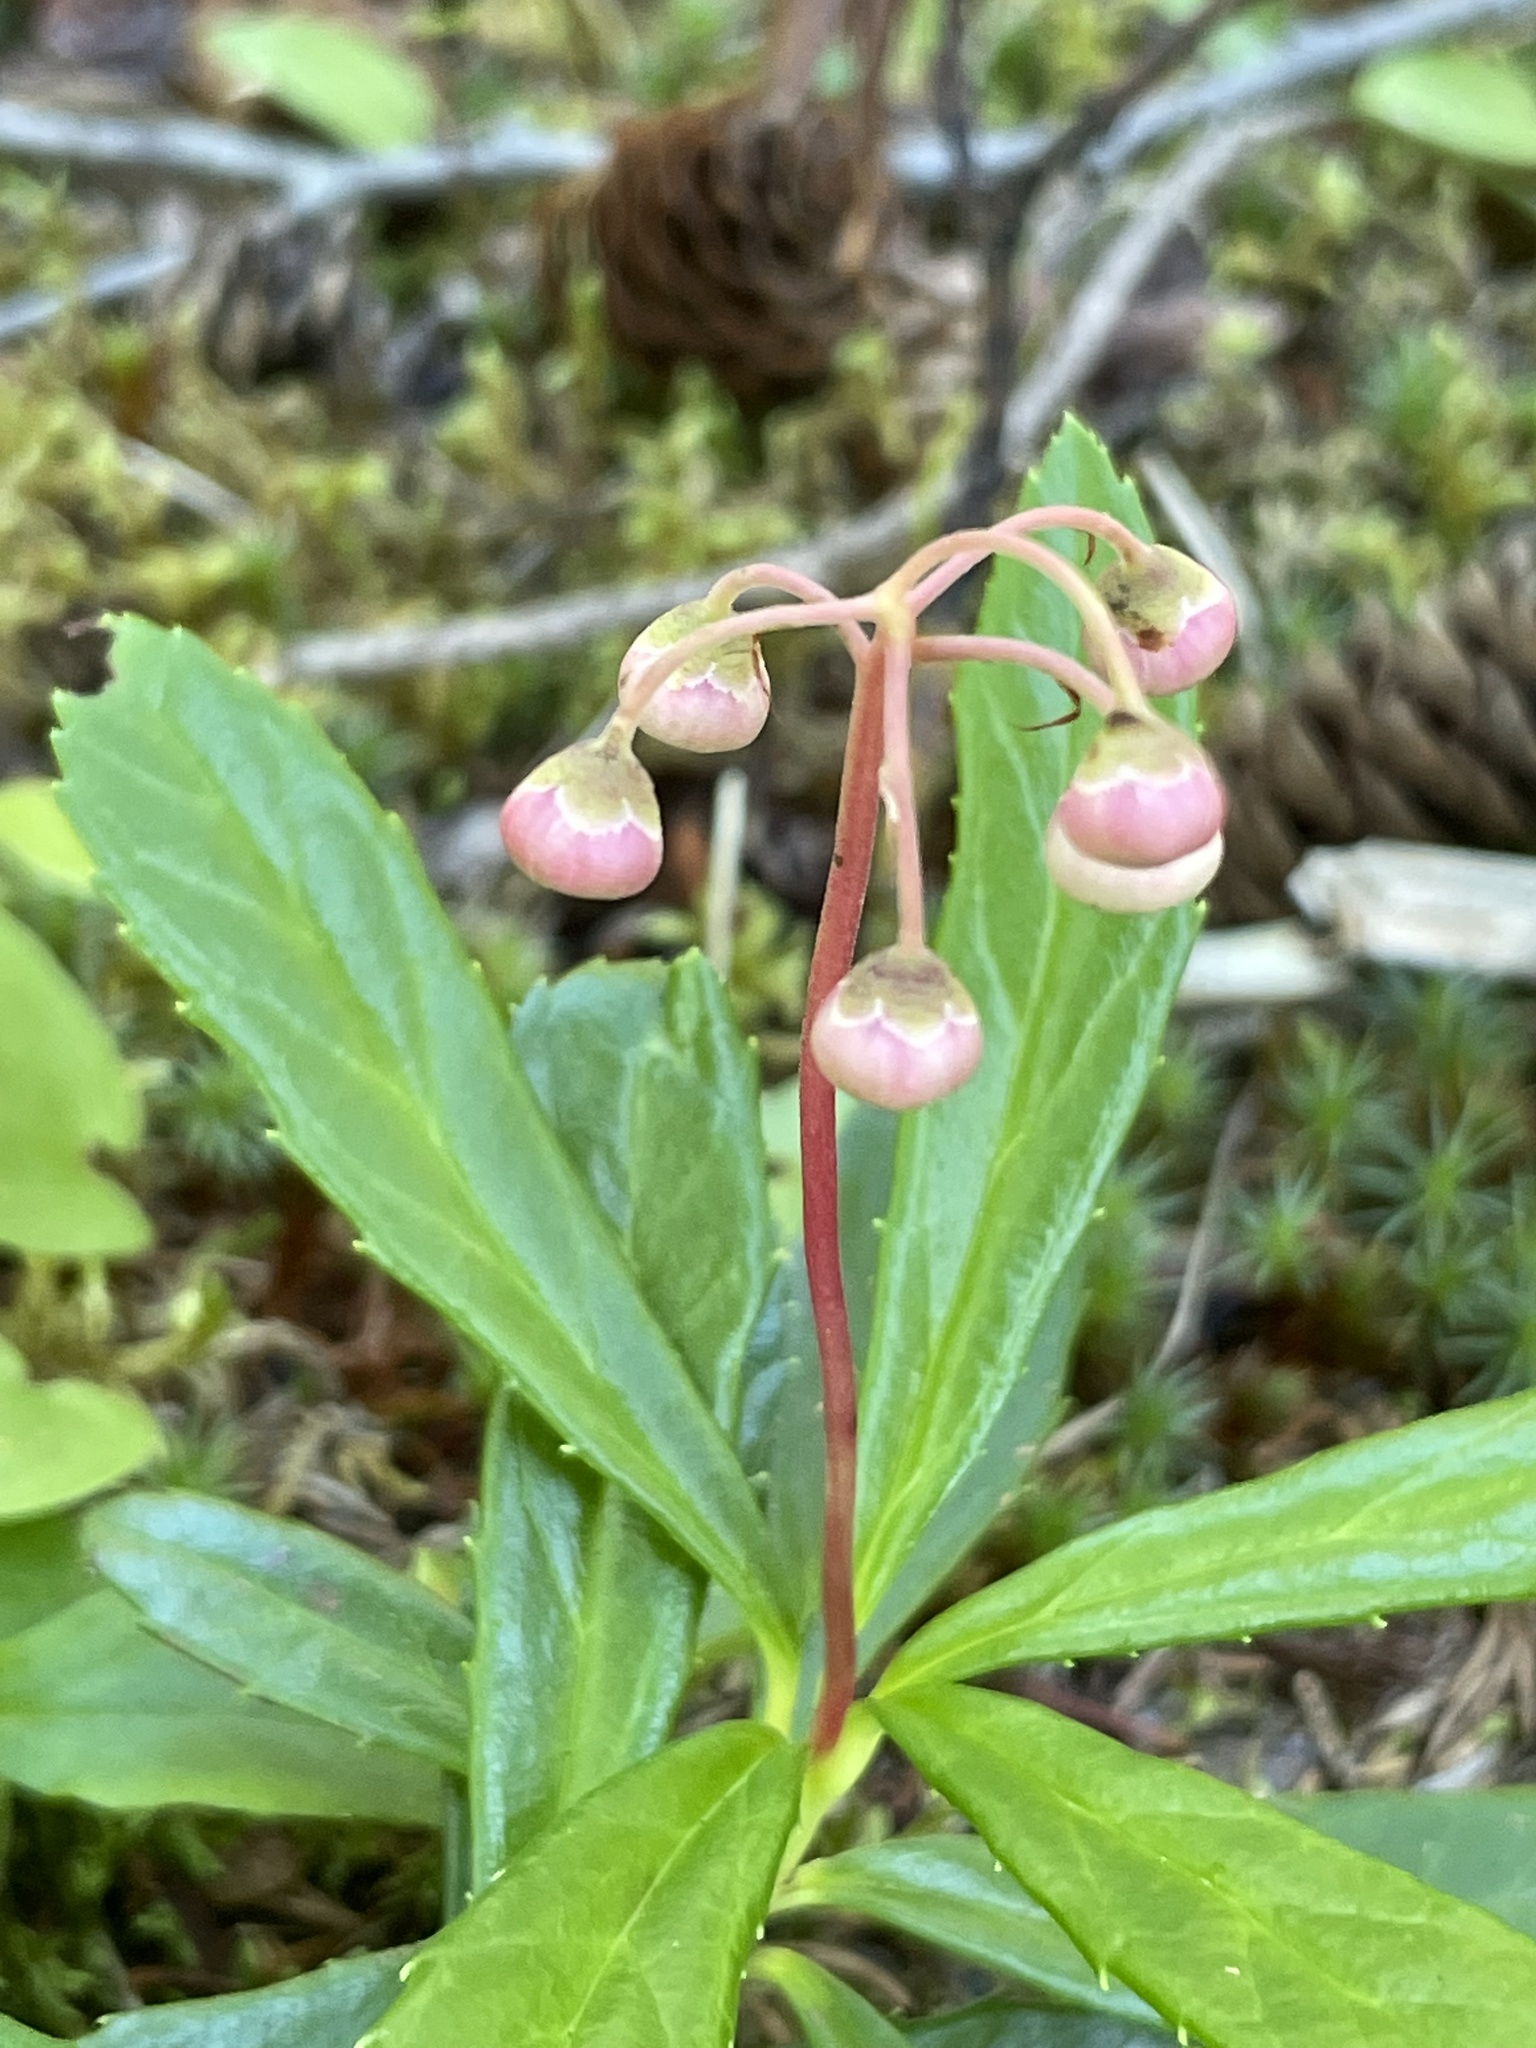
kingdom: Plantae
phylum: Tracheophyta
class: Magnoliopsida
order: Ericales
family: Ericaceae
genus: Chimaphila
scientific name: Chimaphila umbellata
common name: Pipsissewa
